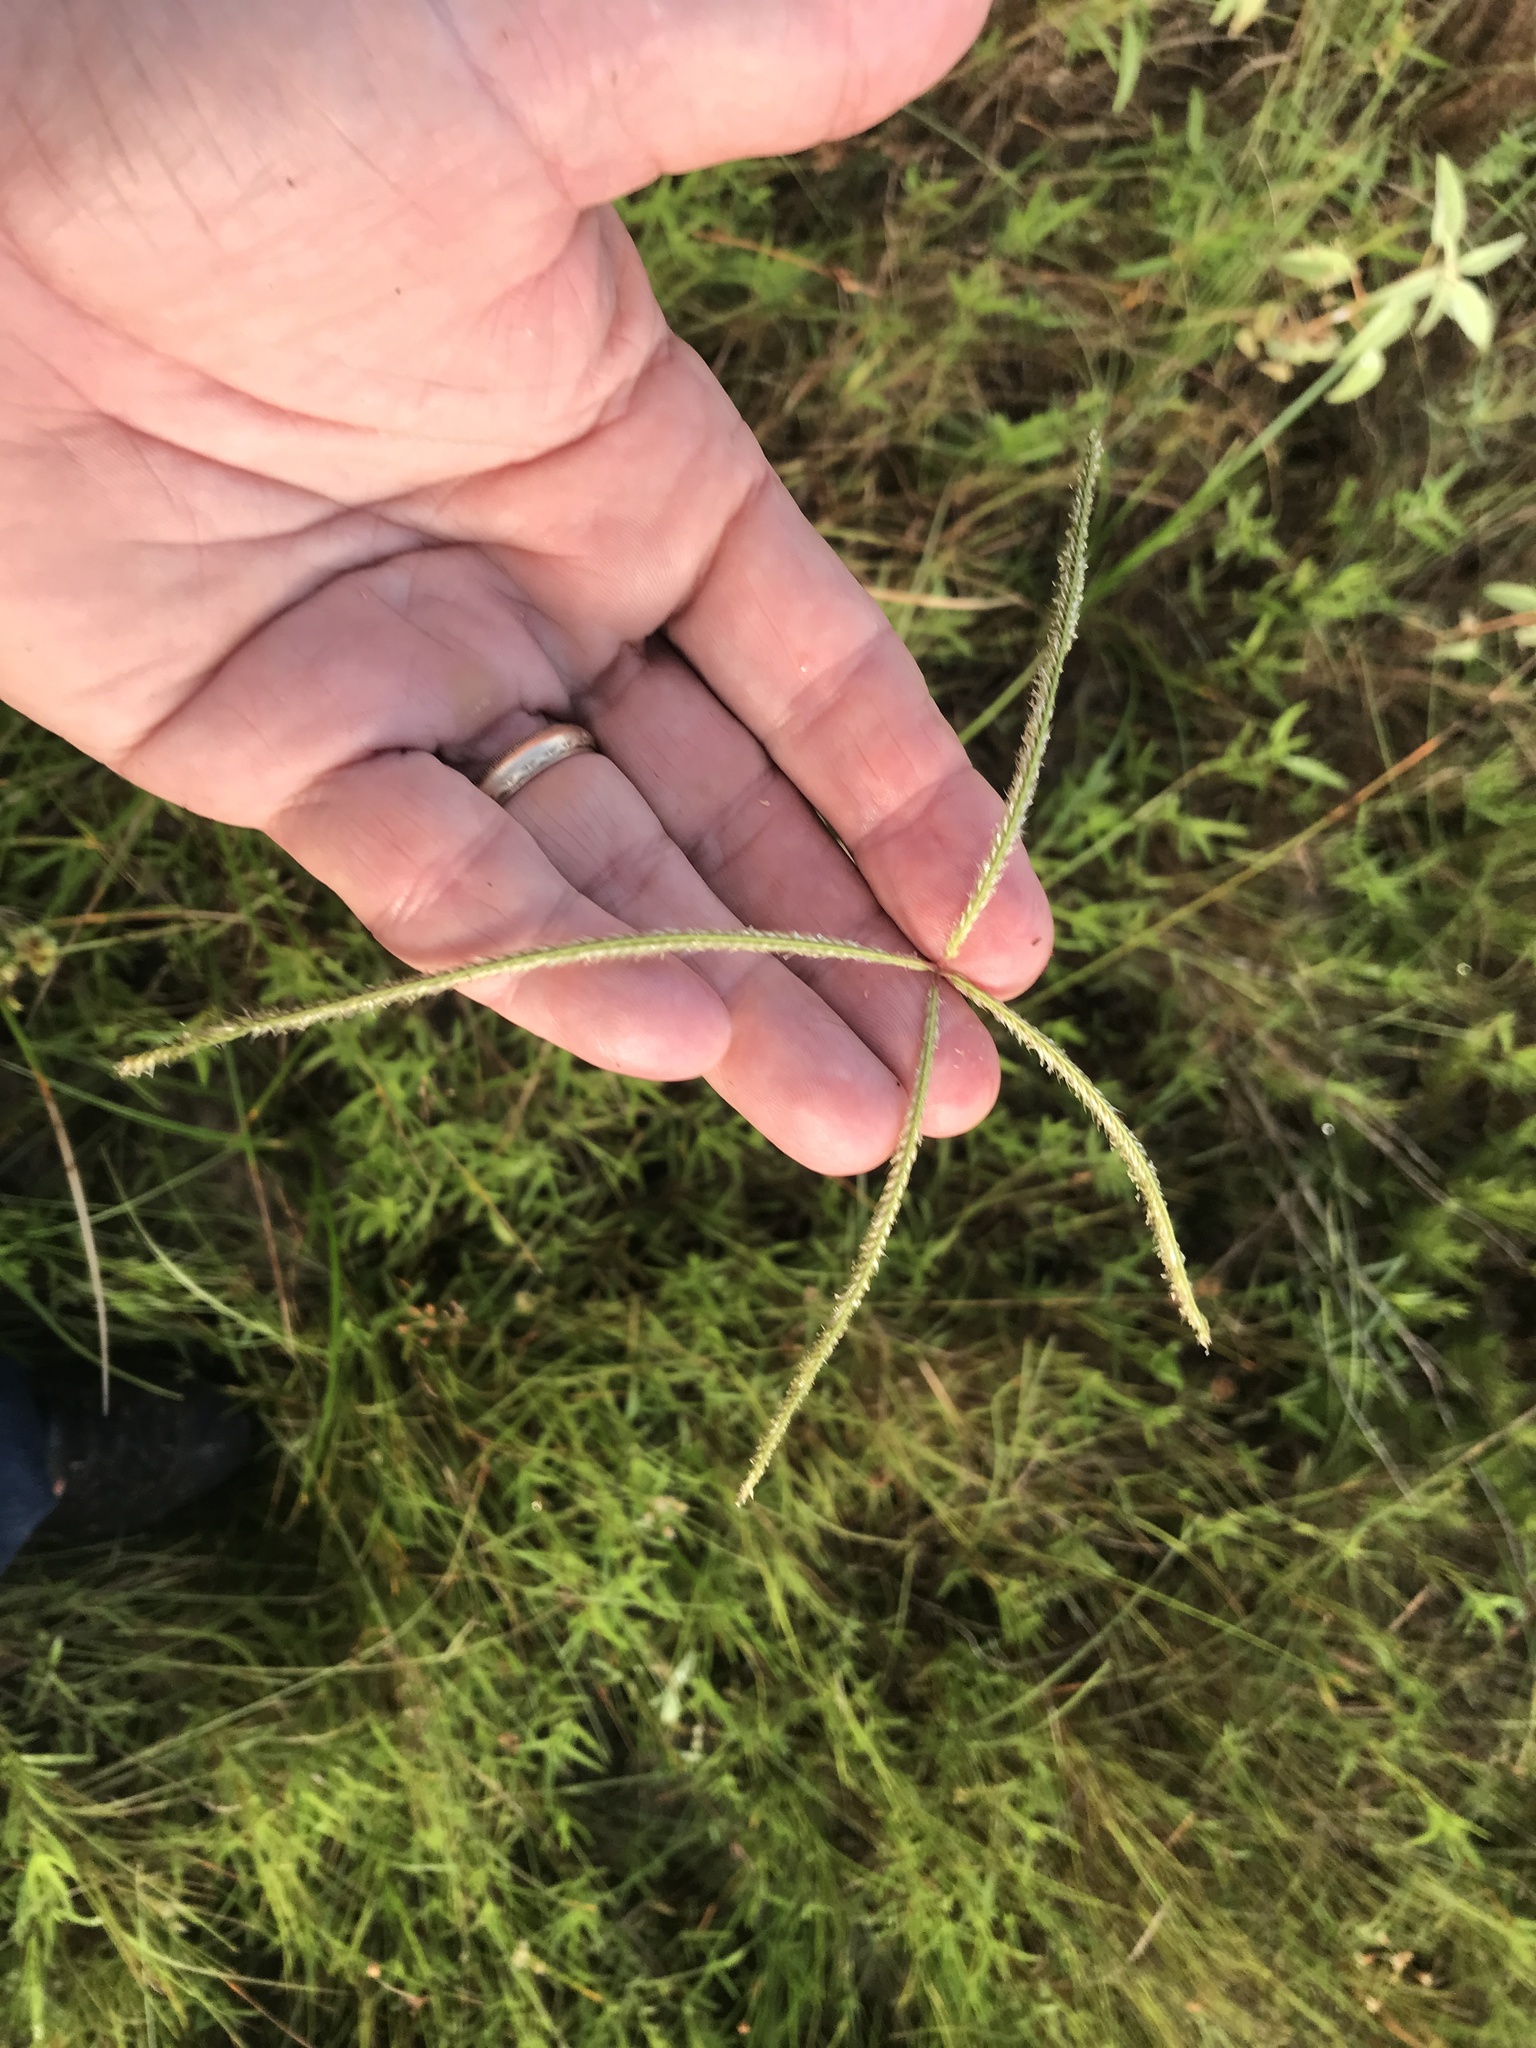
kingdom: Plantae
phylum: Tracheophyta
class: Liliopsida
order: Poales
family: Poaceae
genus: Stapfochloa
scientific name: Stapfochloa canterae
